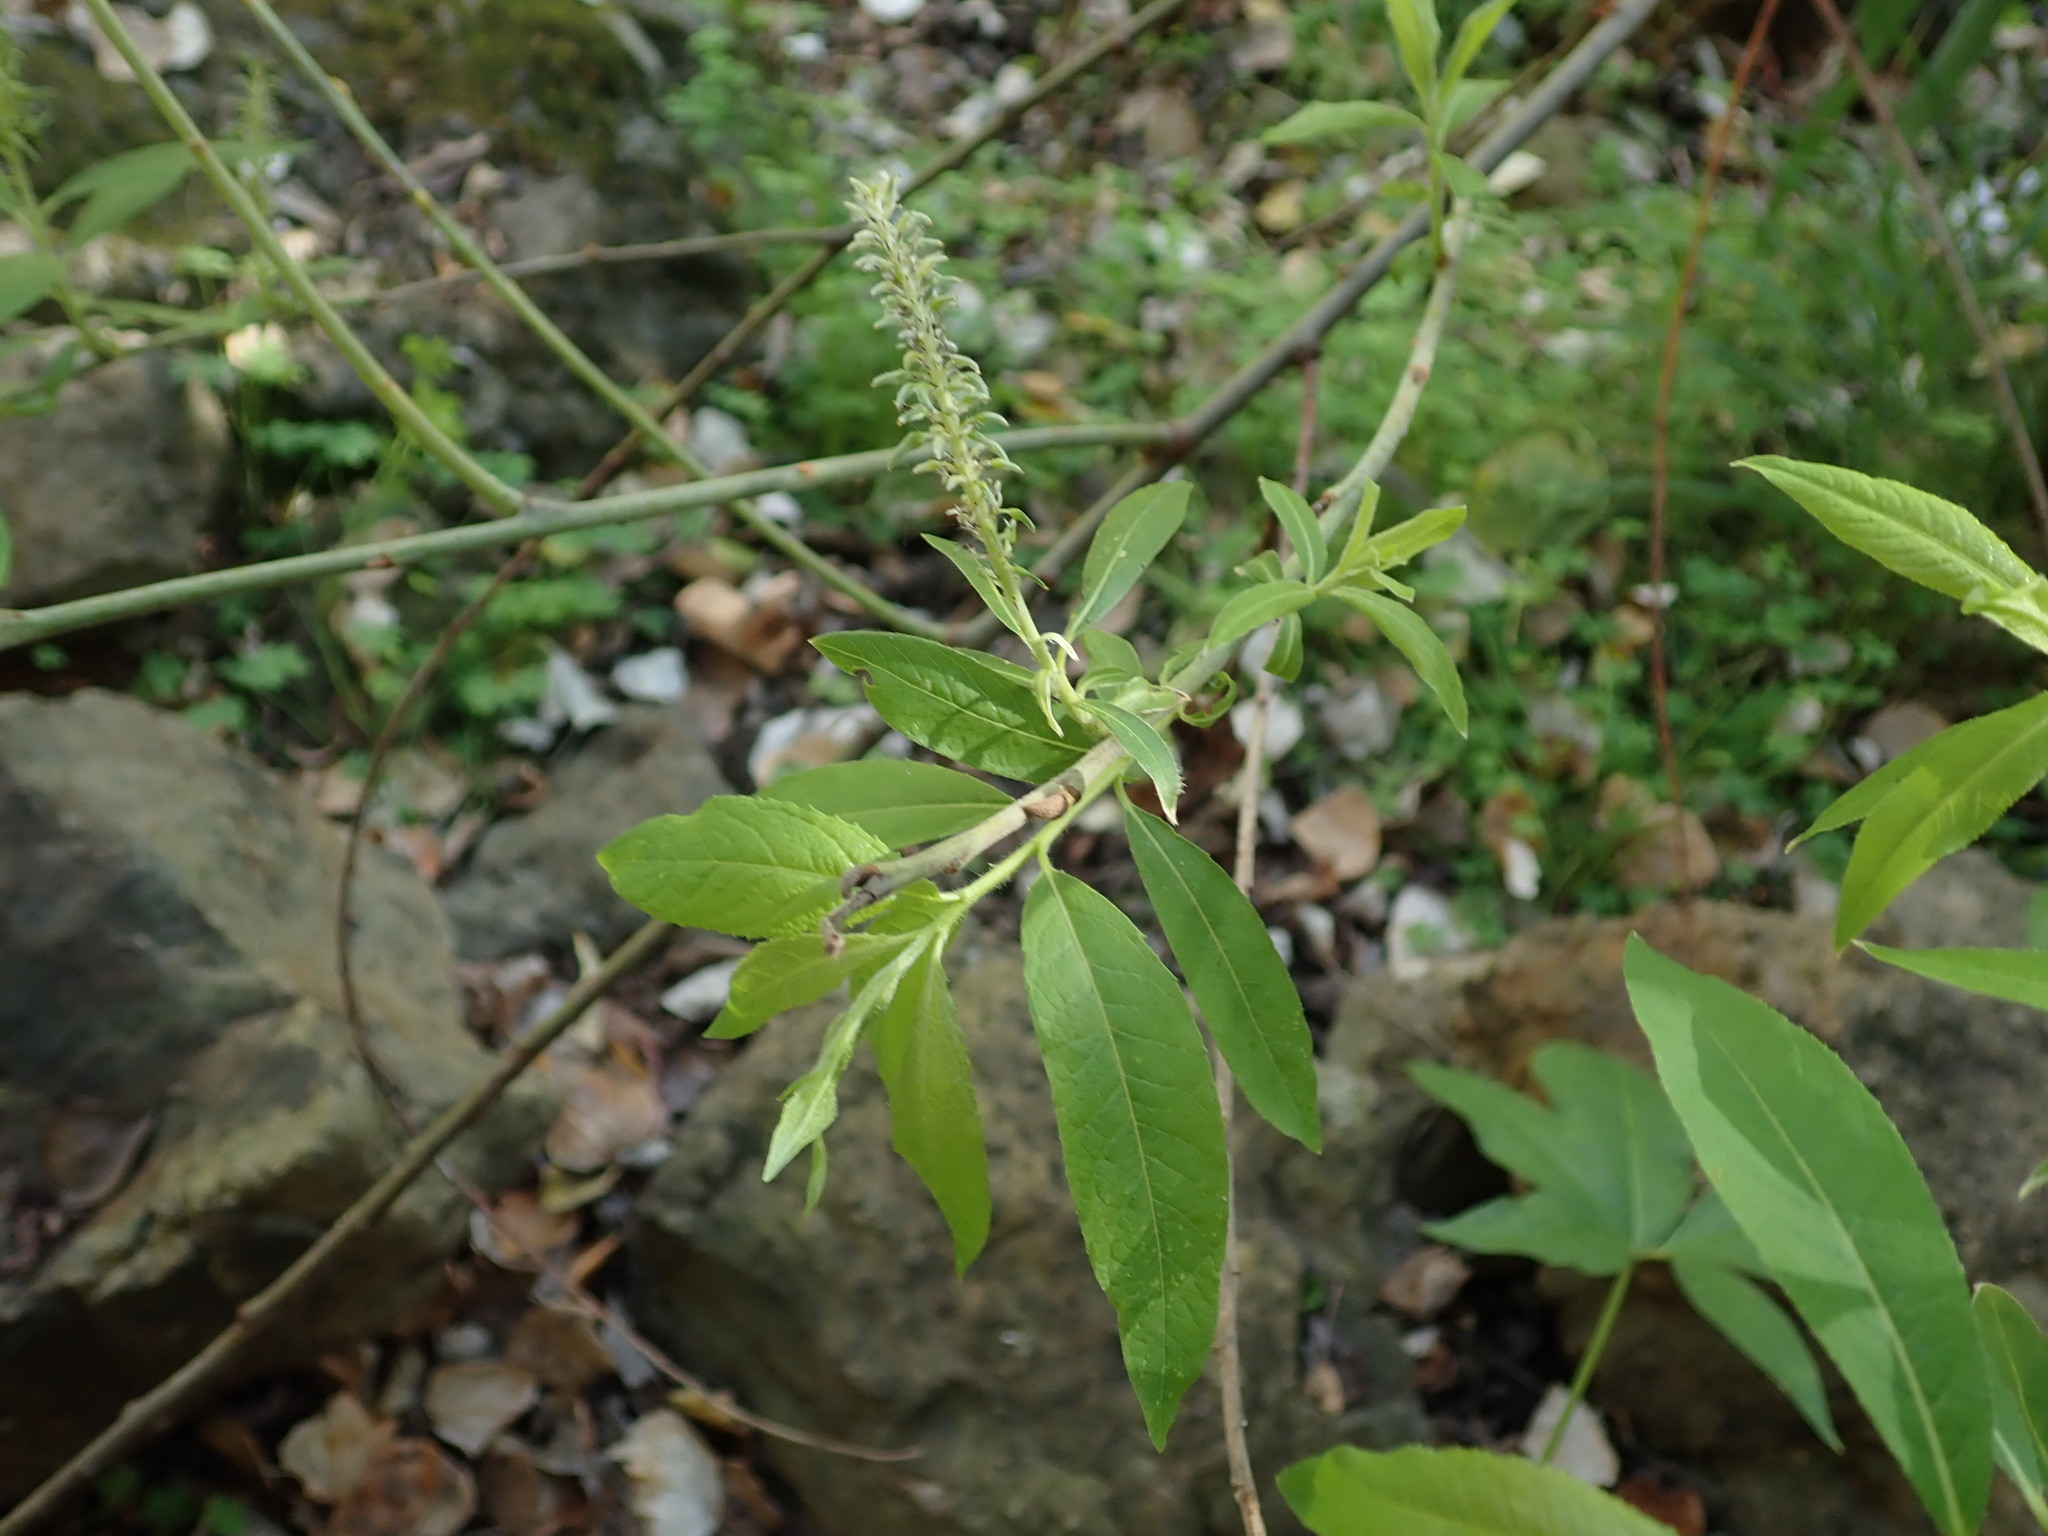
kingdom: Plantae
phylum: Tracheophyta
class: Magnoliopsida
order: Malpighiales
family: Salicaceae
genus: Salix
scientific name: Salix pedicellata
